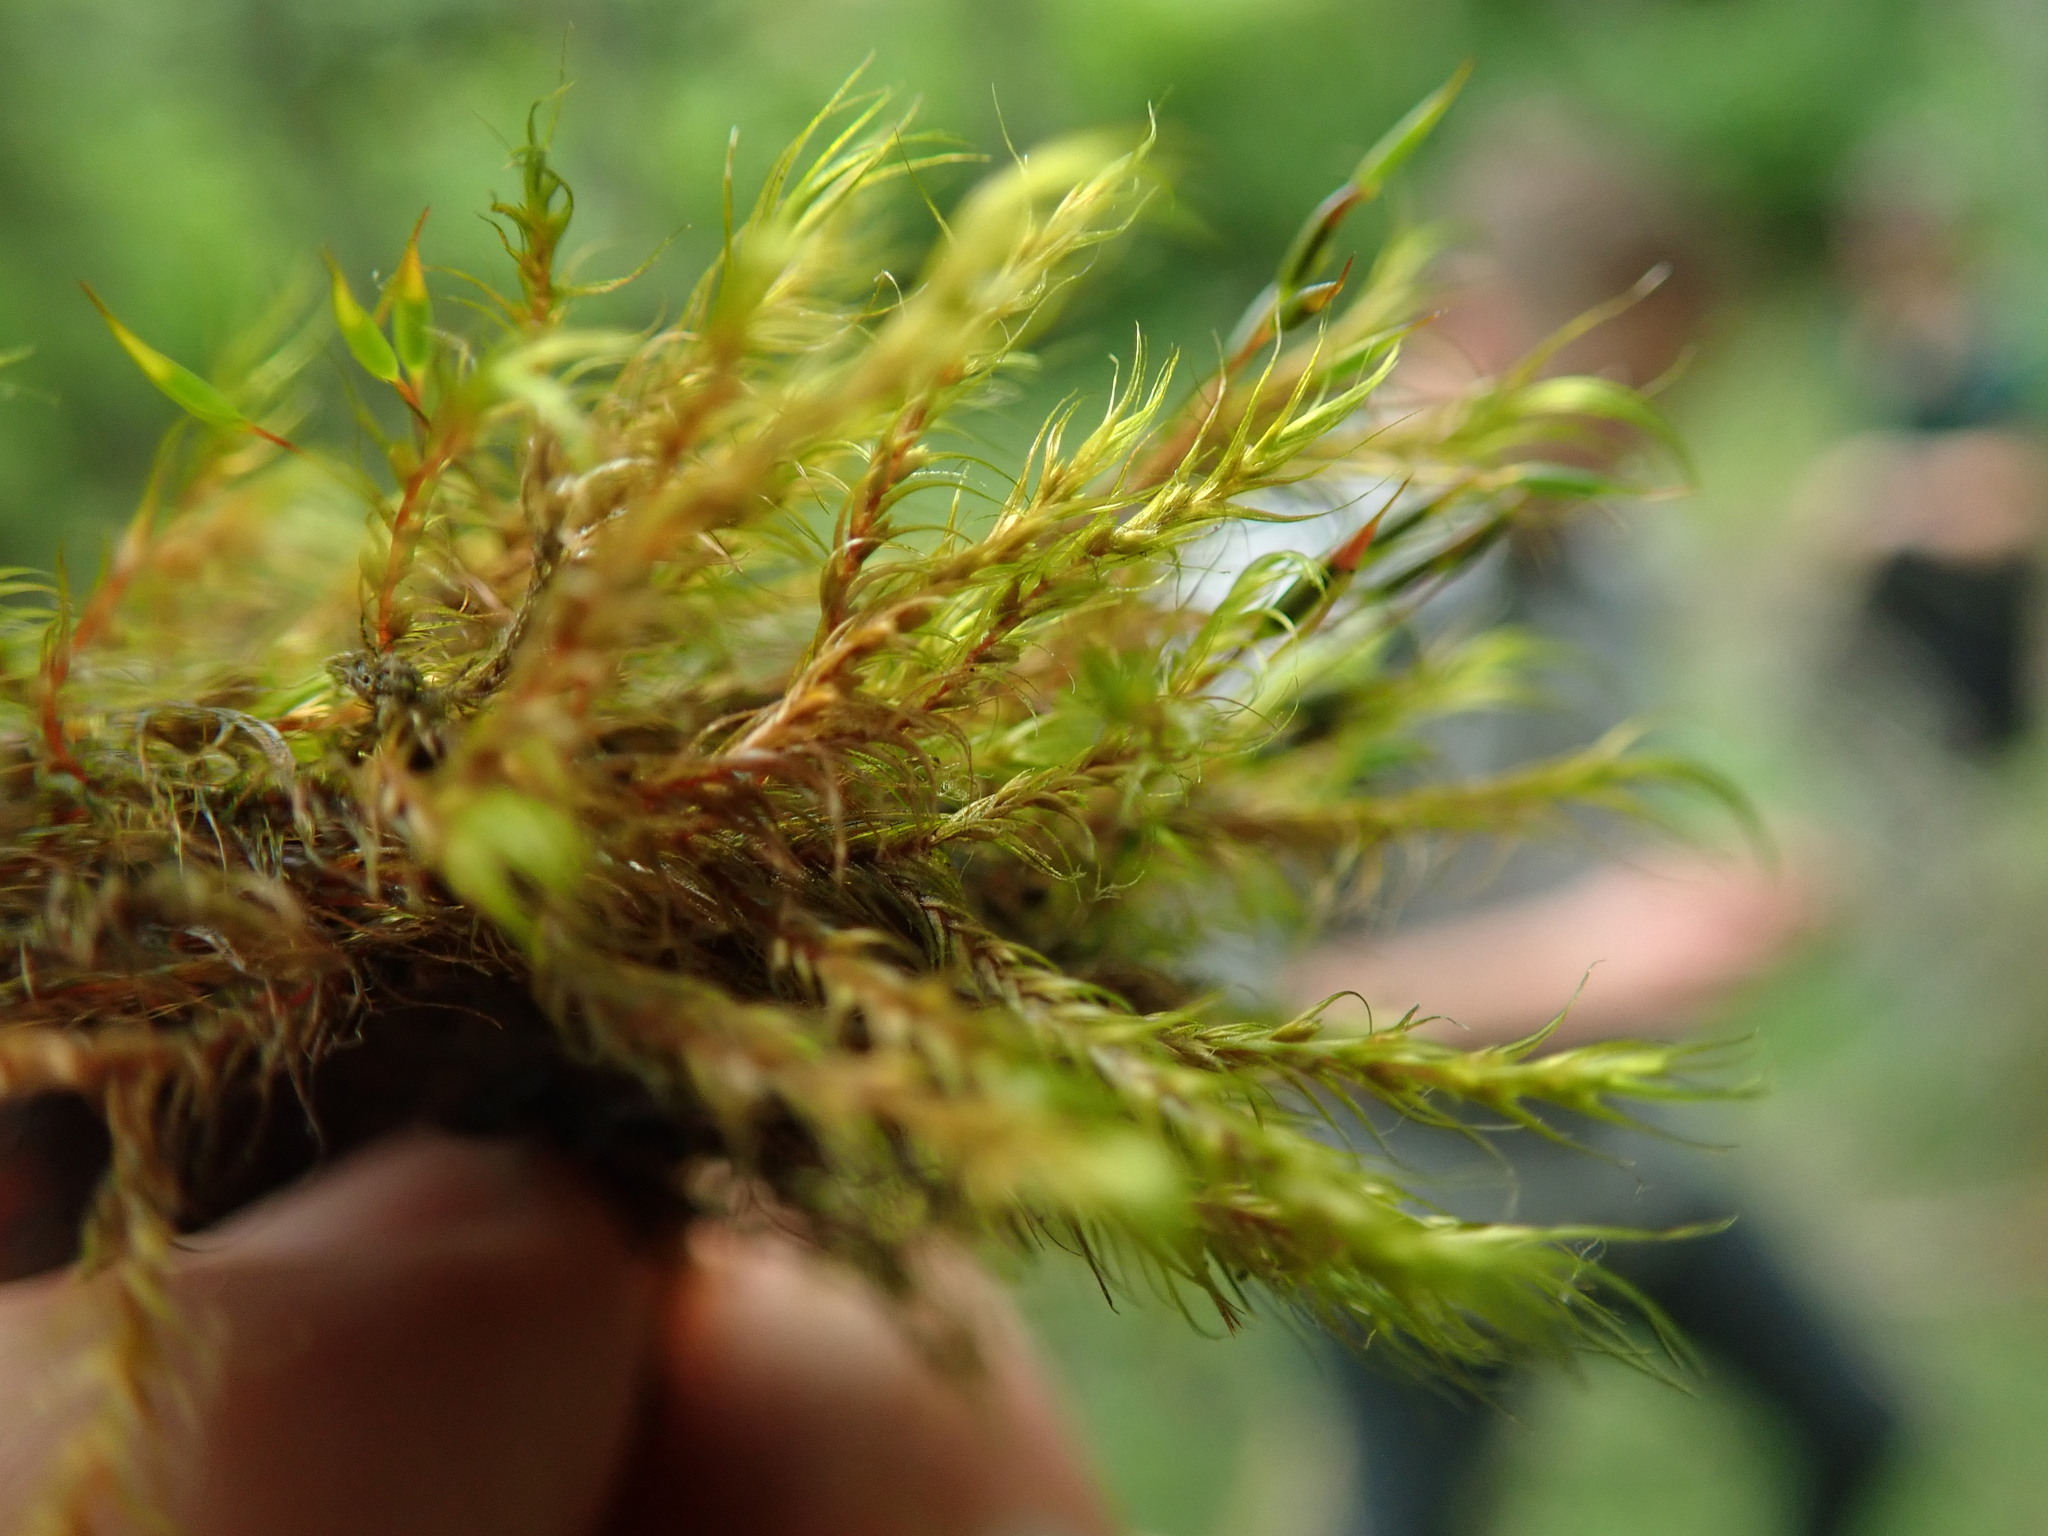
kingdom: Plantae
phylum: Bryophyta
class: Bryopsida
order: Hypnales
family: Fontinalaceae
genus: Dichelyma
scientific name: Dichelyma uncinatum
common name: Sickle-leaved claw moss
